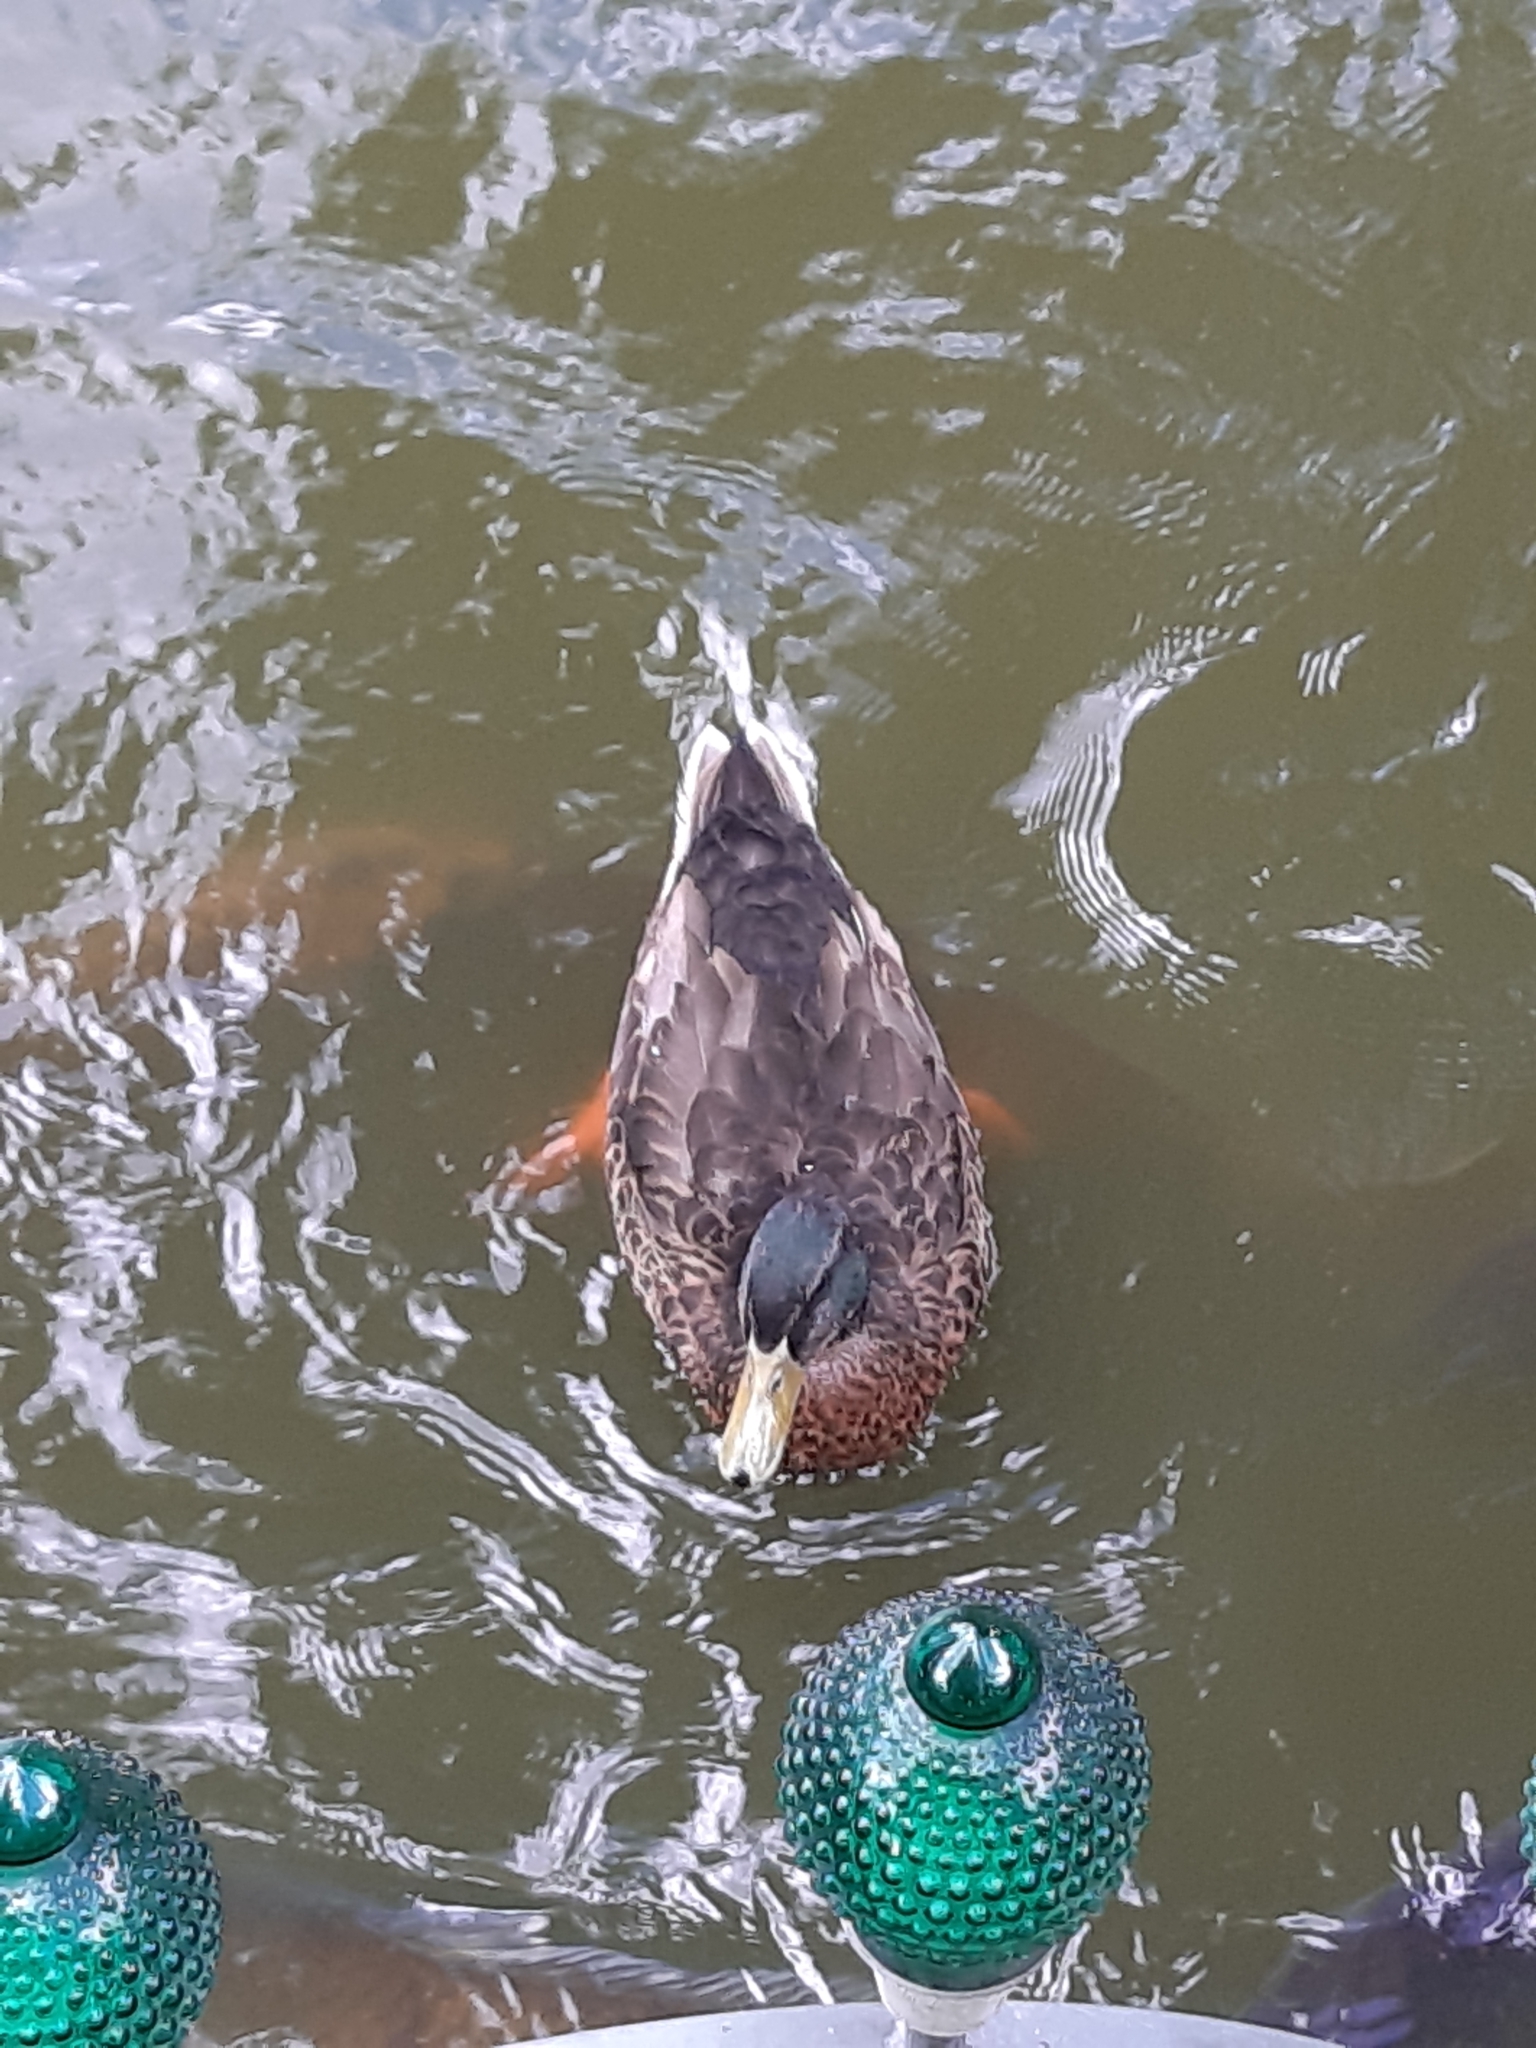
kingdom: Animalia
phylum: Chordata
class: Aves
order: Anseriformes
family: Anatidae
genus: Anas
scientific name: Anas platyrhynchos
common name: Mallard
